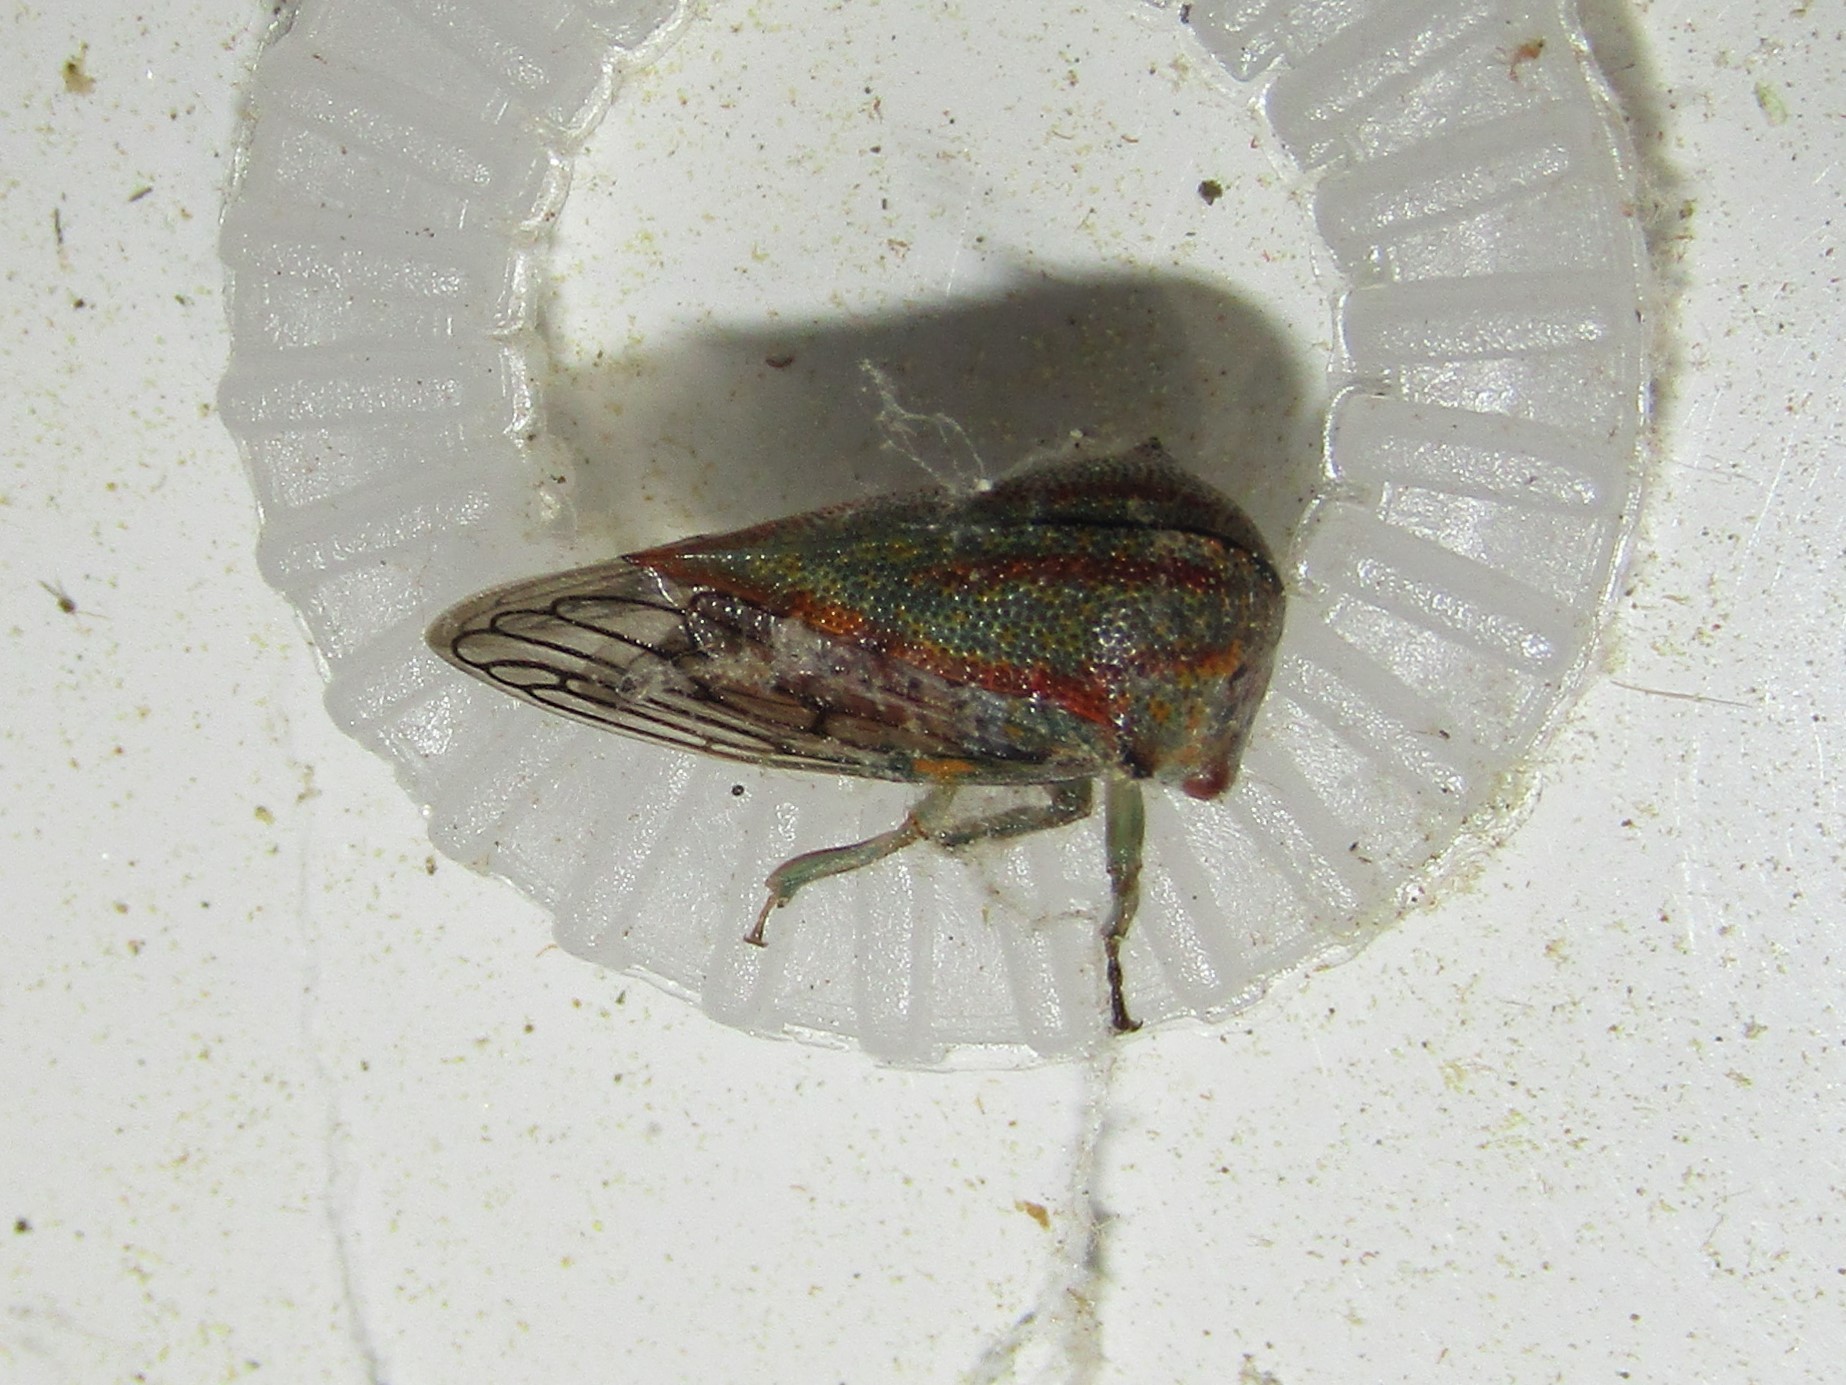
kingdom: Animalia
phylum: Arthropoda
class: Insecta
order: Hemiptera
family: Membracidae
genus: Platycotis
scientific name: Platycotis vittatus
